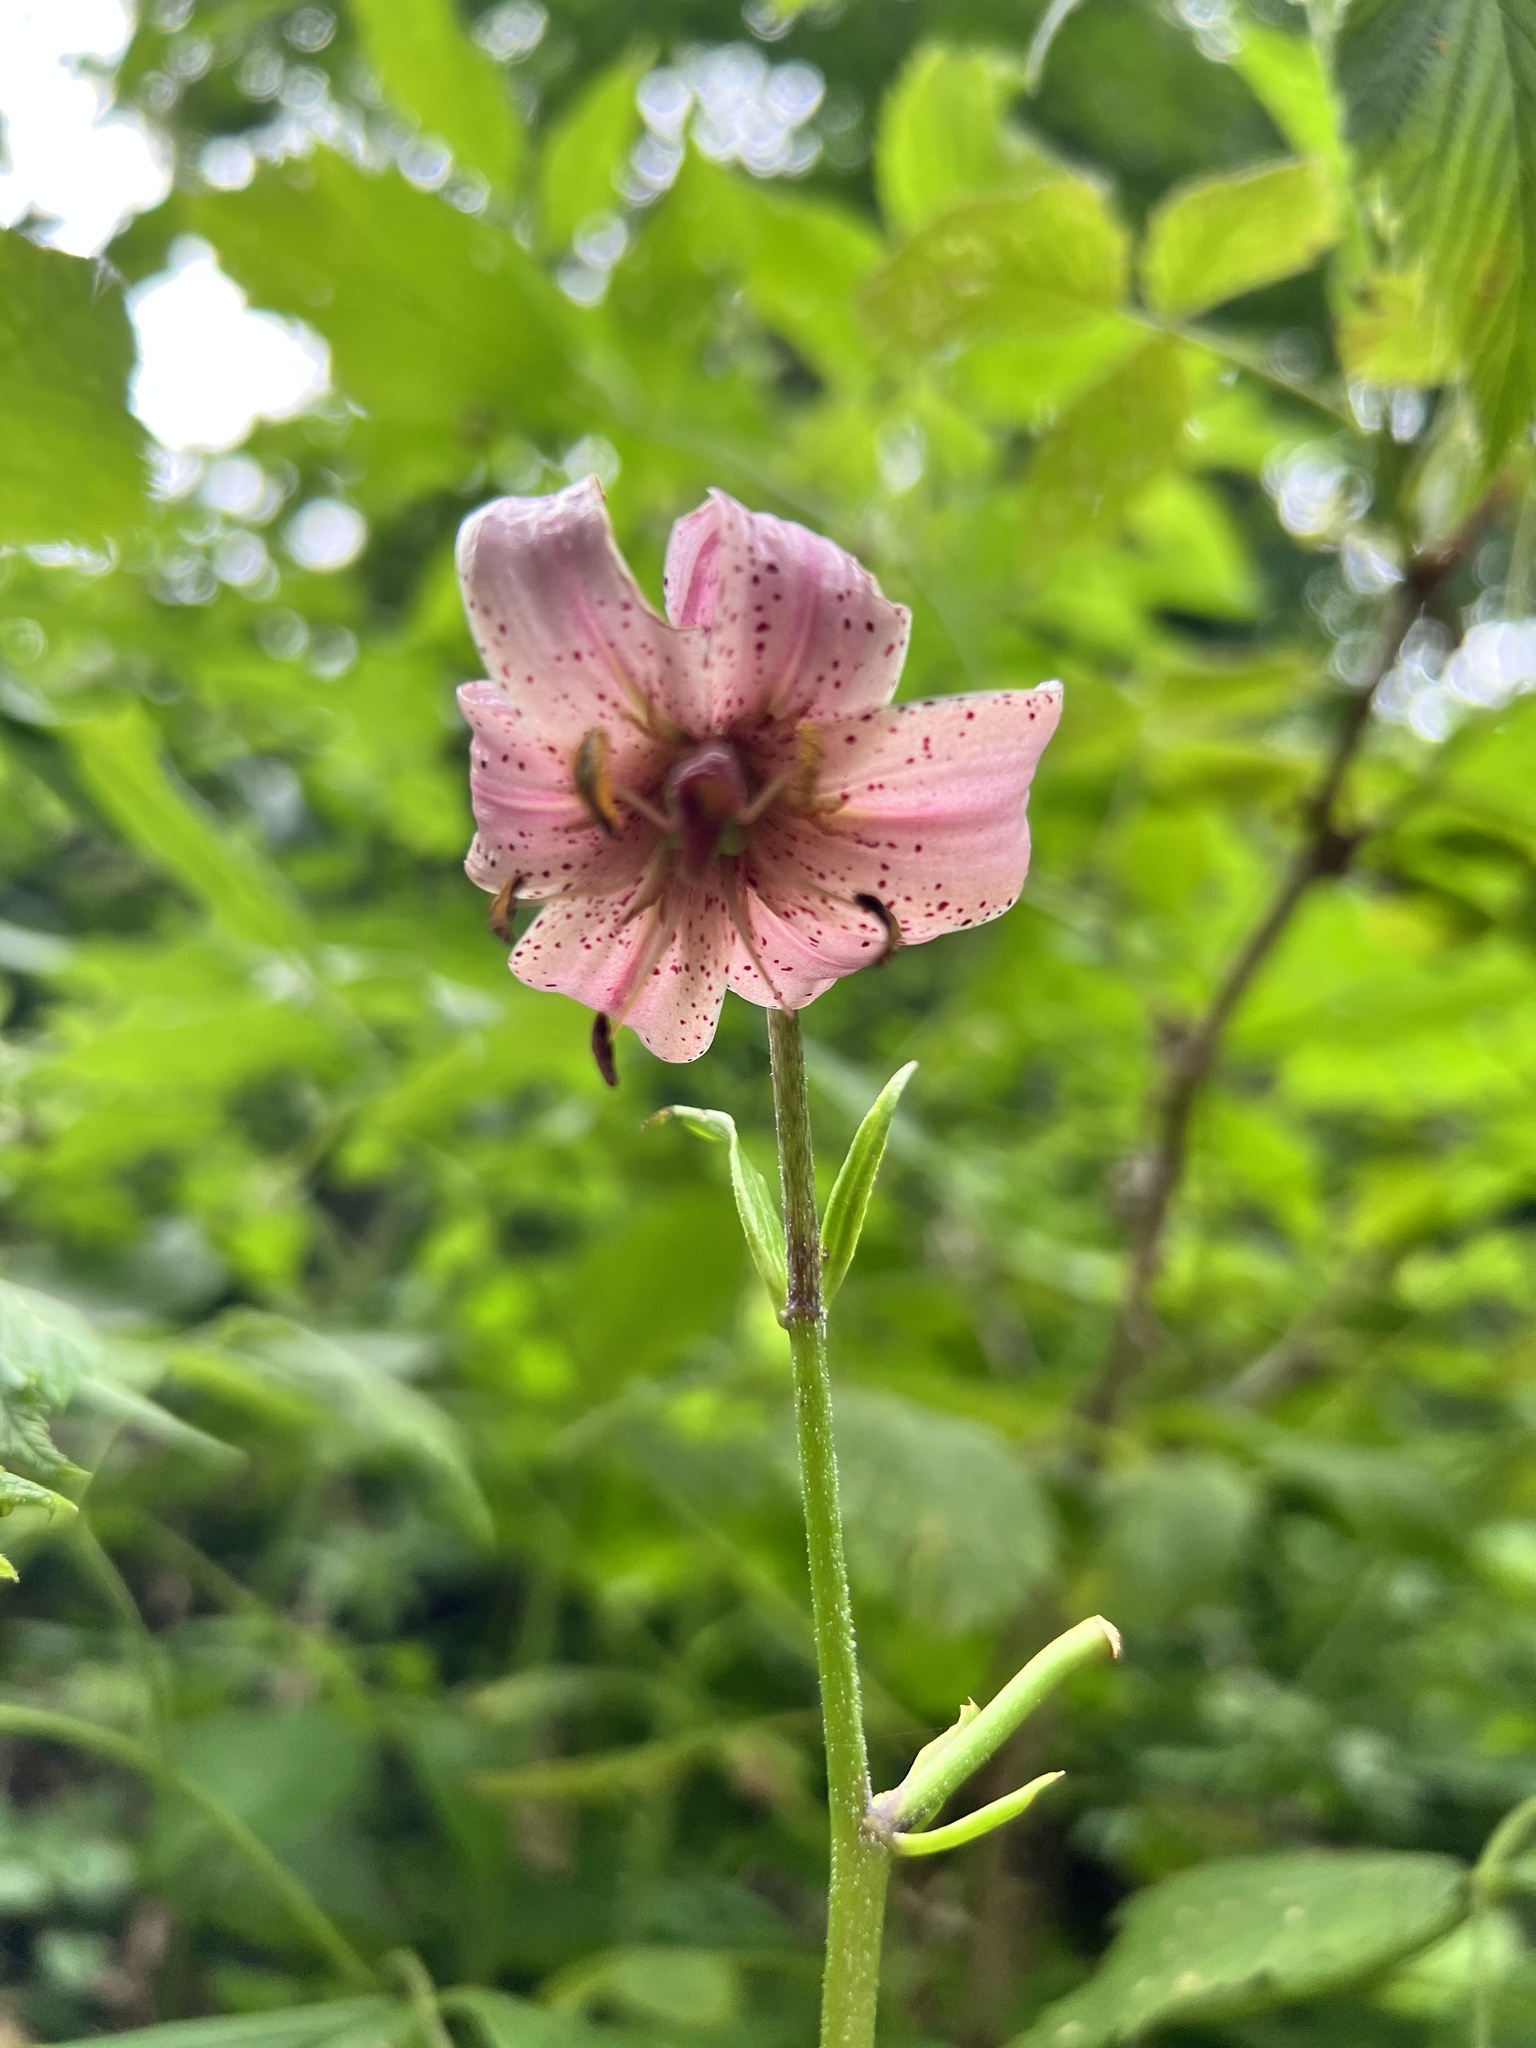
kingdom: Plantae
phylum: Tracheophyta
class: Liliopsida
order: Liliales
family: Liliaceae
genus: Lilium
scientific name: Lilium martagon
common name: Martagon lily
